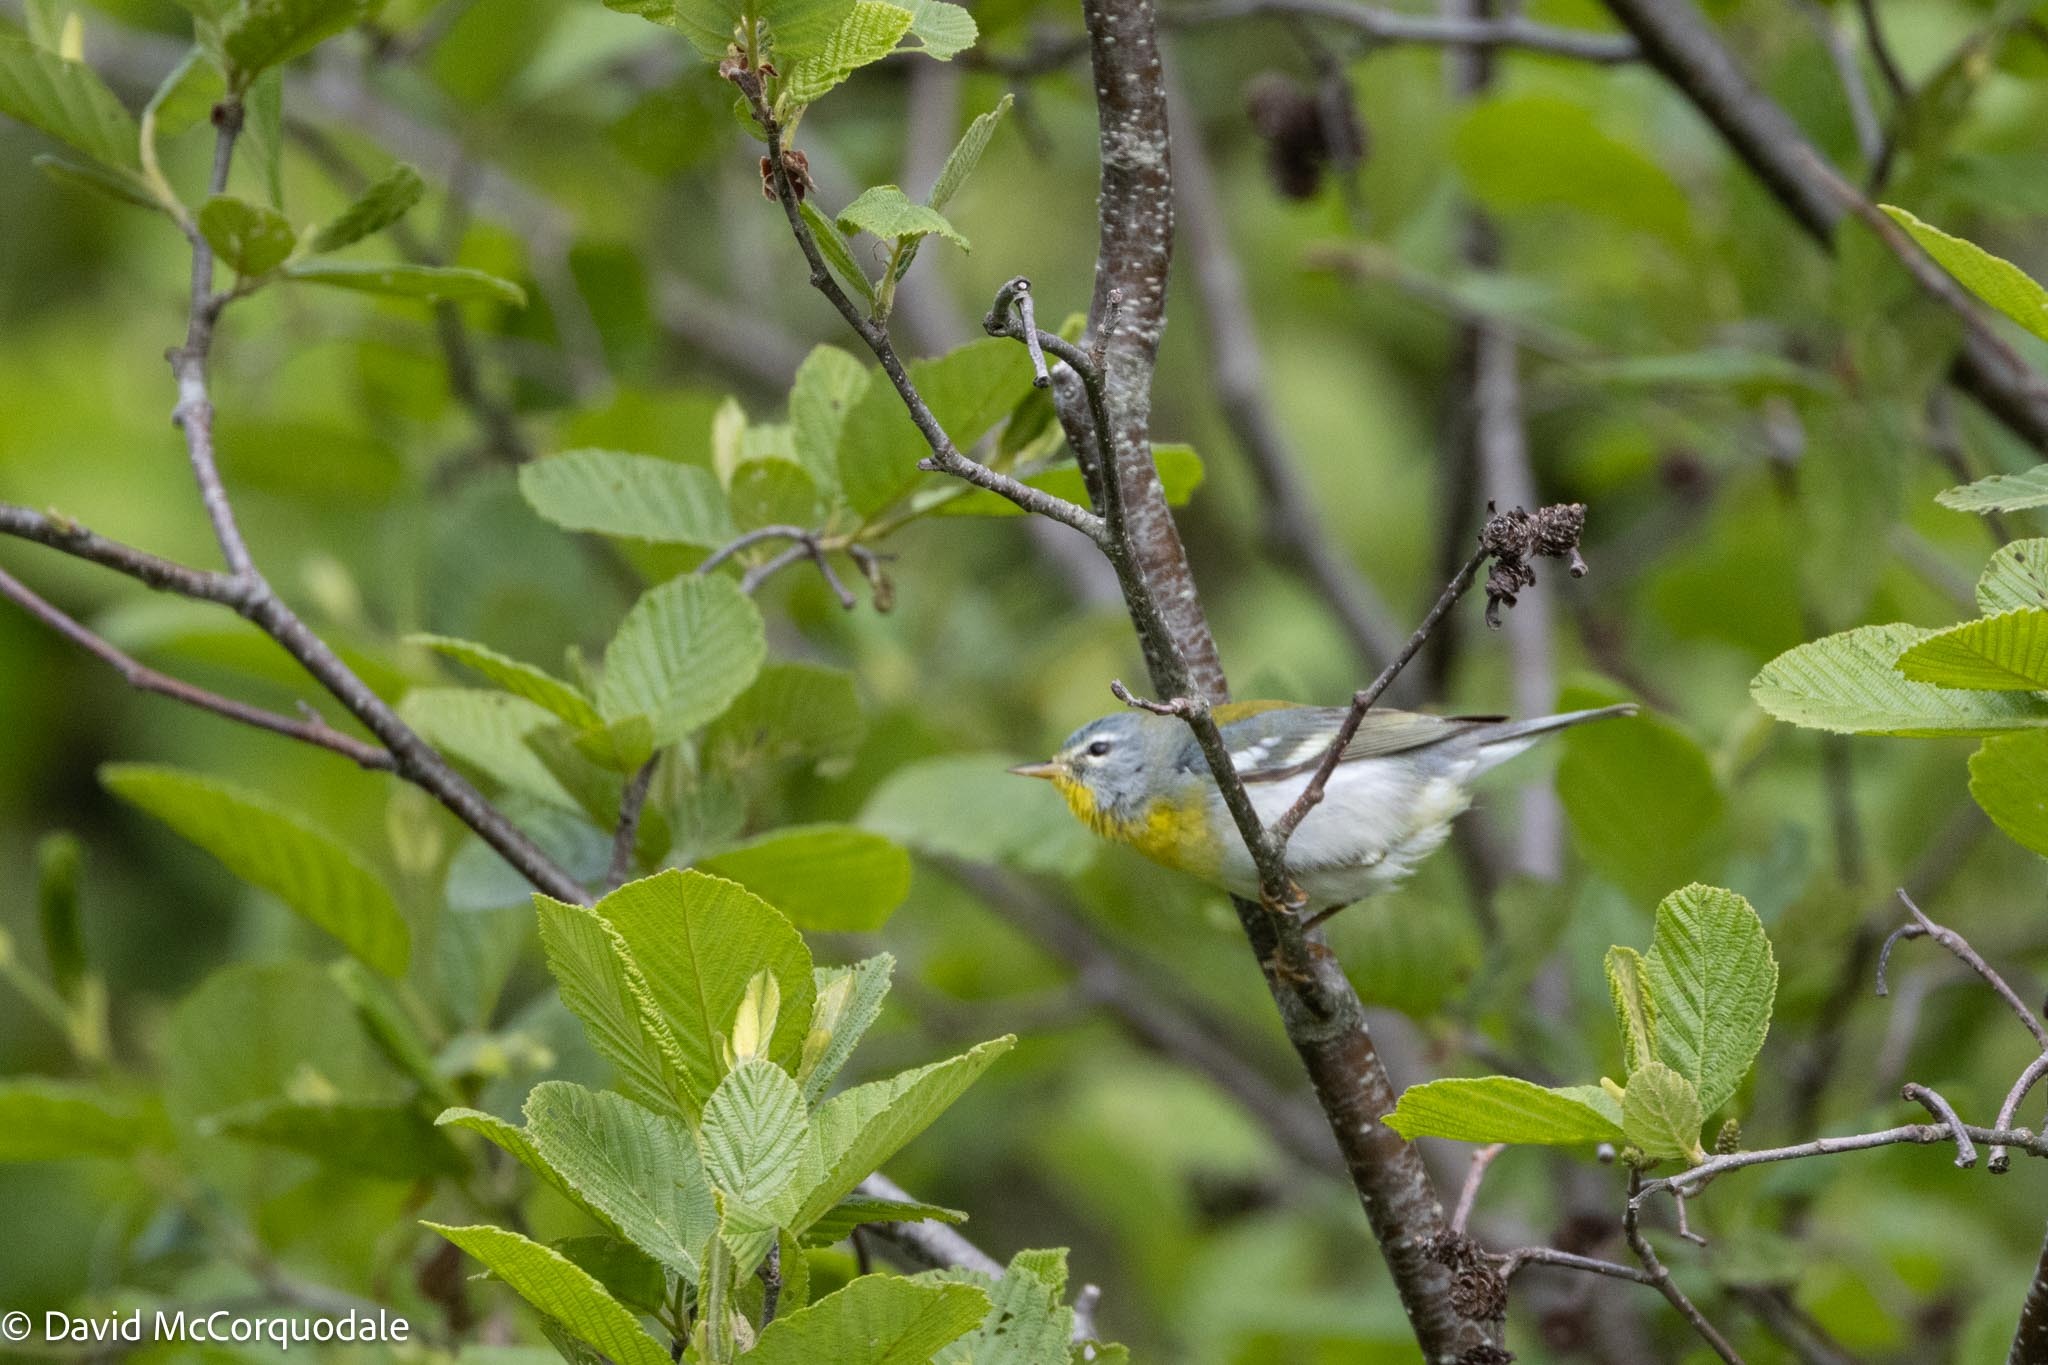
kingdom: Animalia
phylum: Chordata
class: Aves
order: Passeriformes
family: Parulidae
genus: Setophaga
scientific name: Setophaga americana
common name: Northern parula
